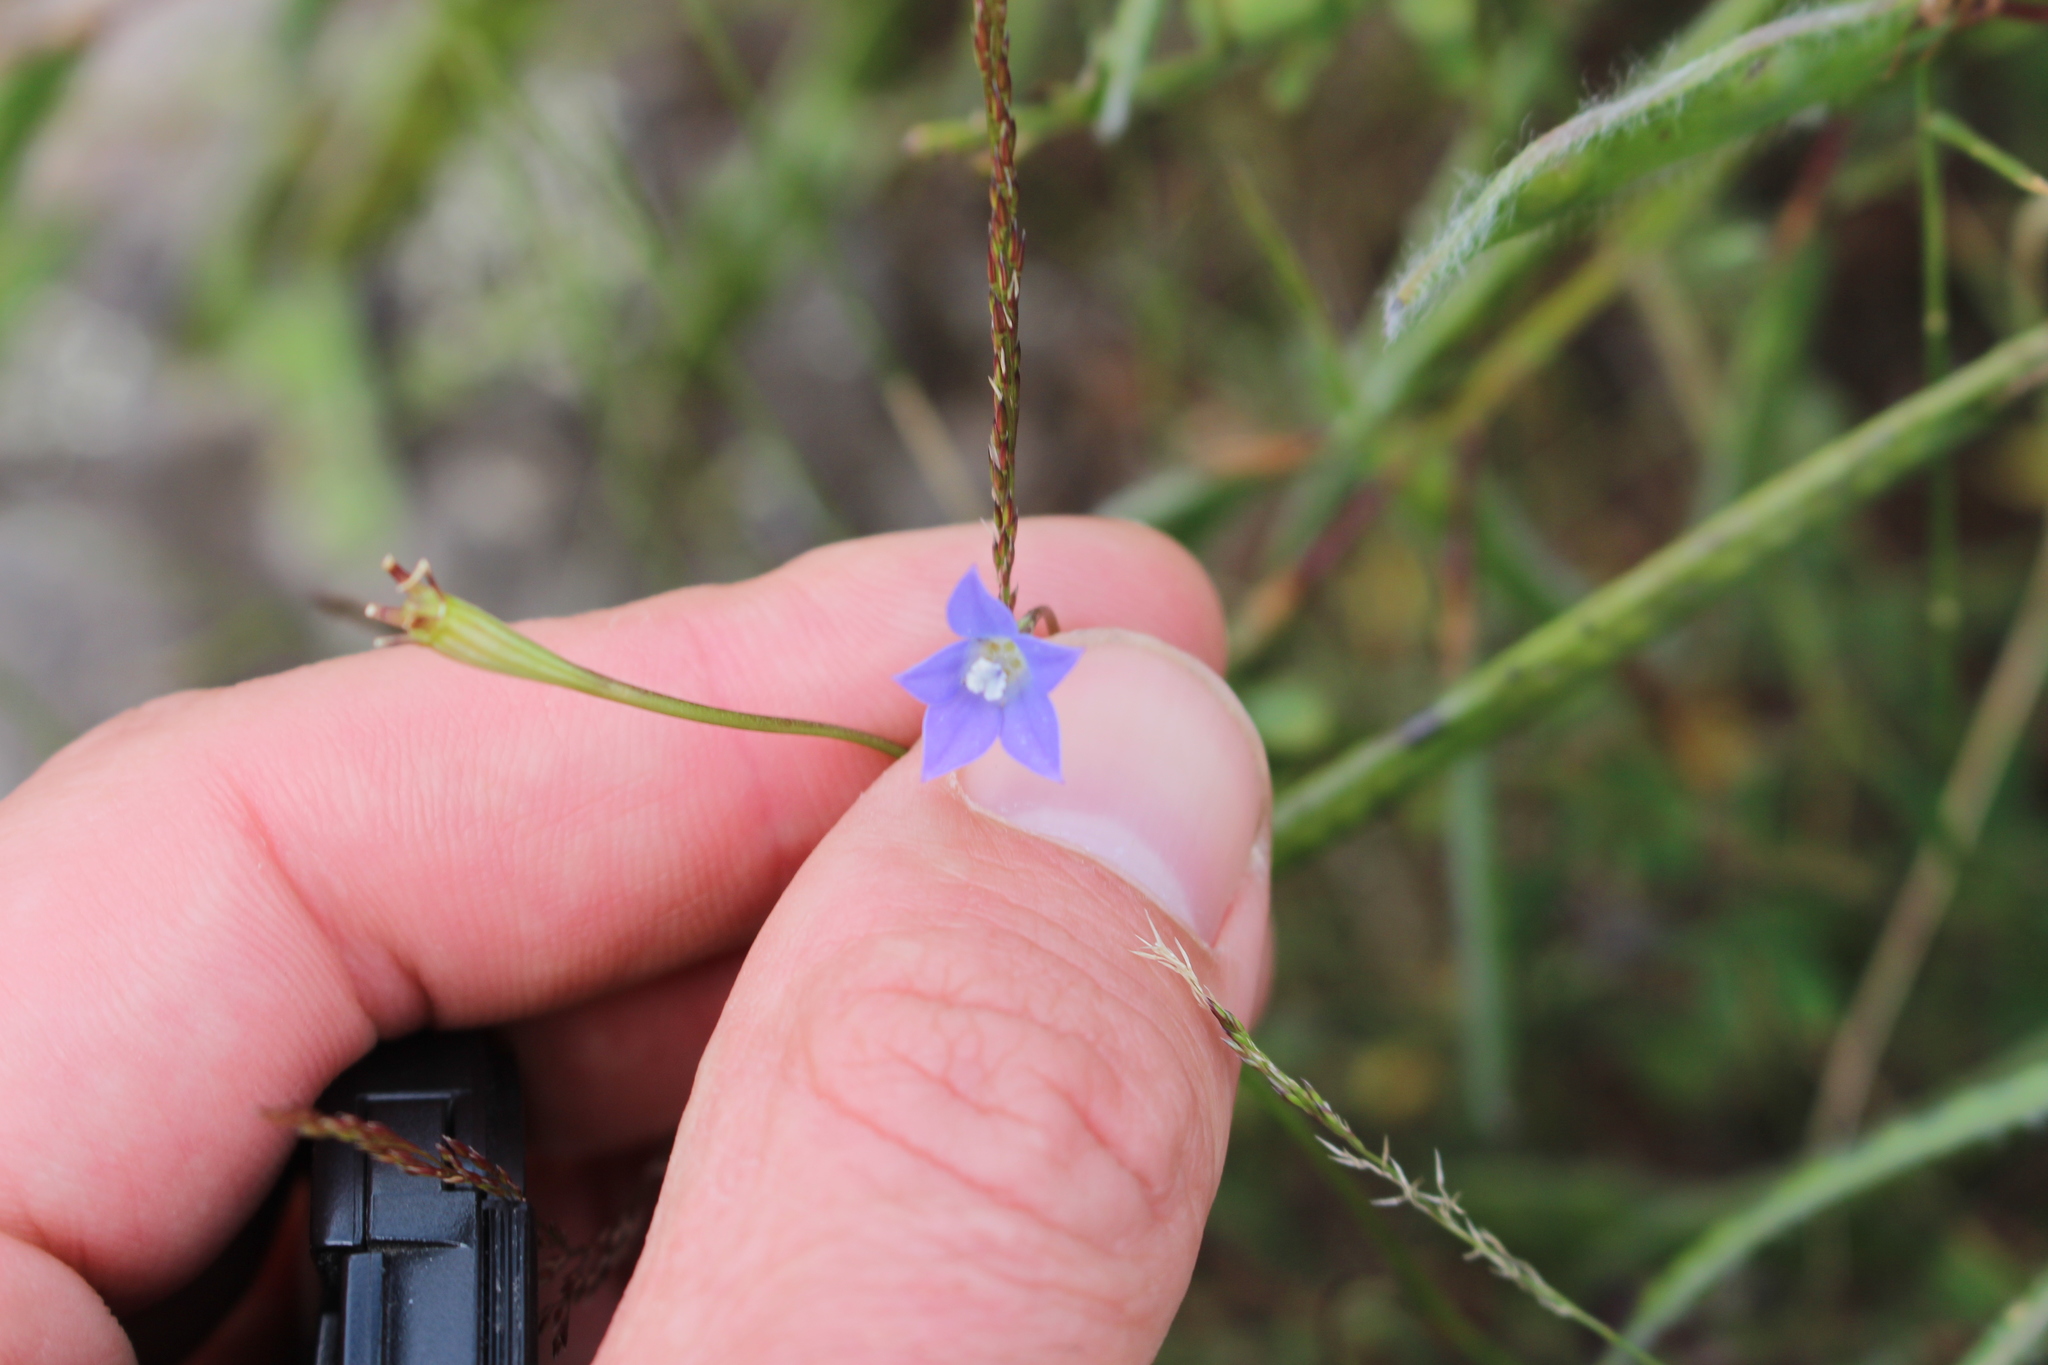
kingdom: Plantae
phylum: Tracheophyta
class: Magnoliopsida
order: Asterales
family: Campanulaceae
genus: Wahlenbergia
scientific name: Wahlenbergia gracilis
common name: Harebell
